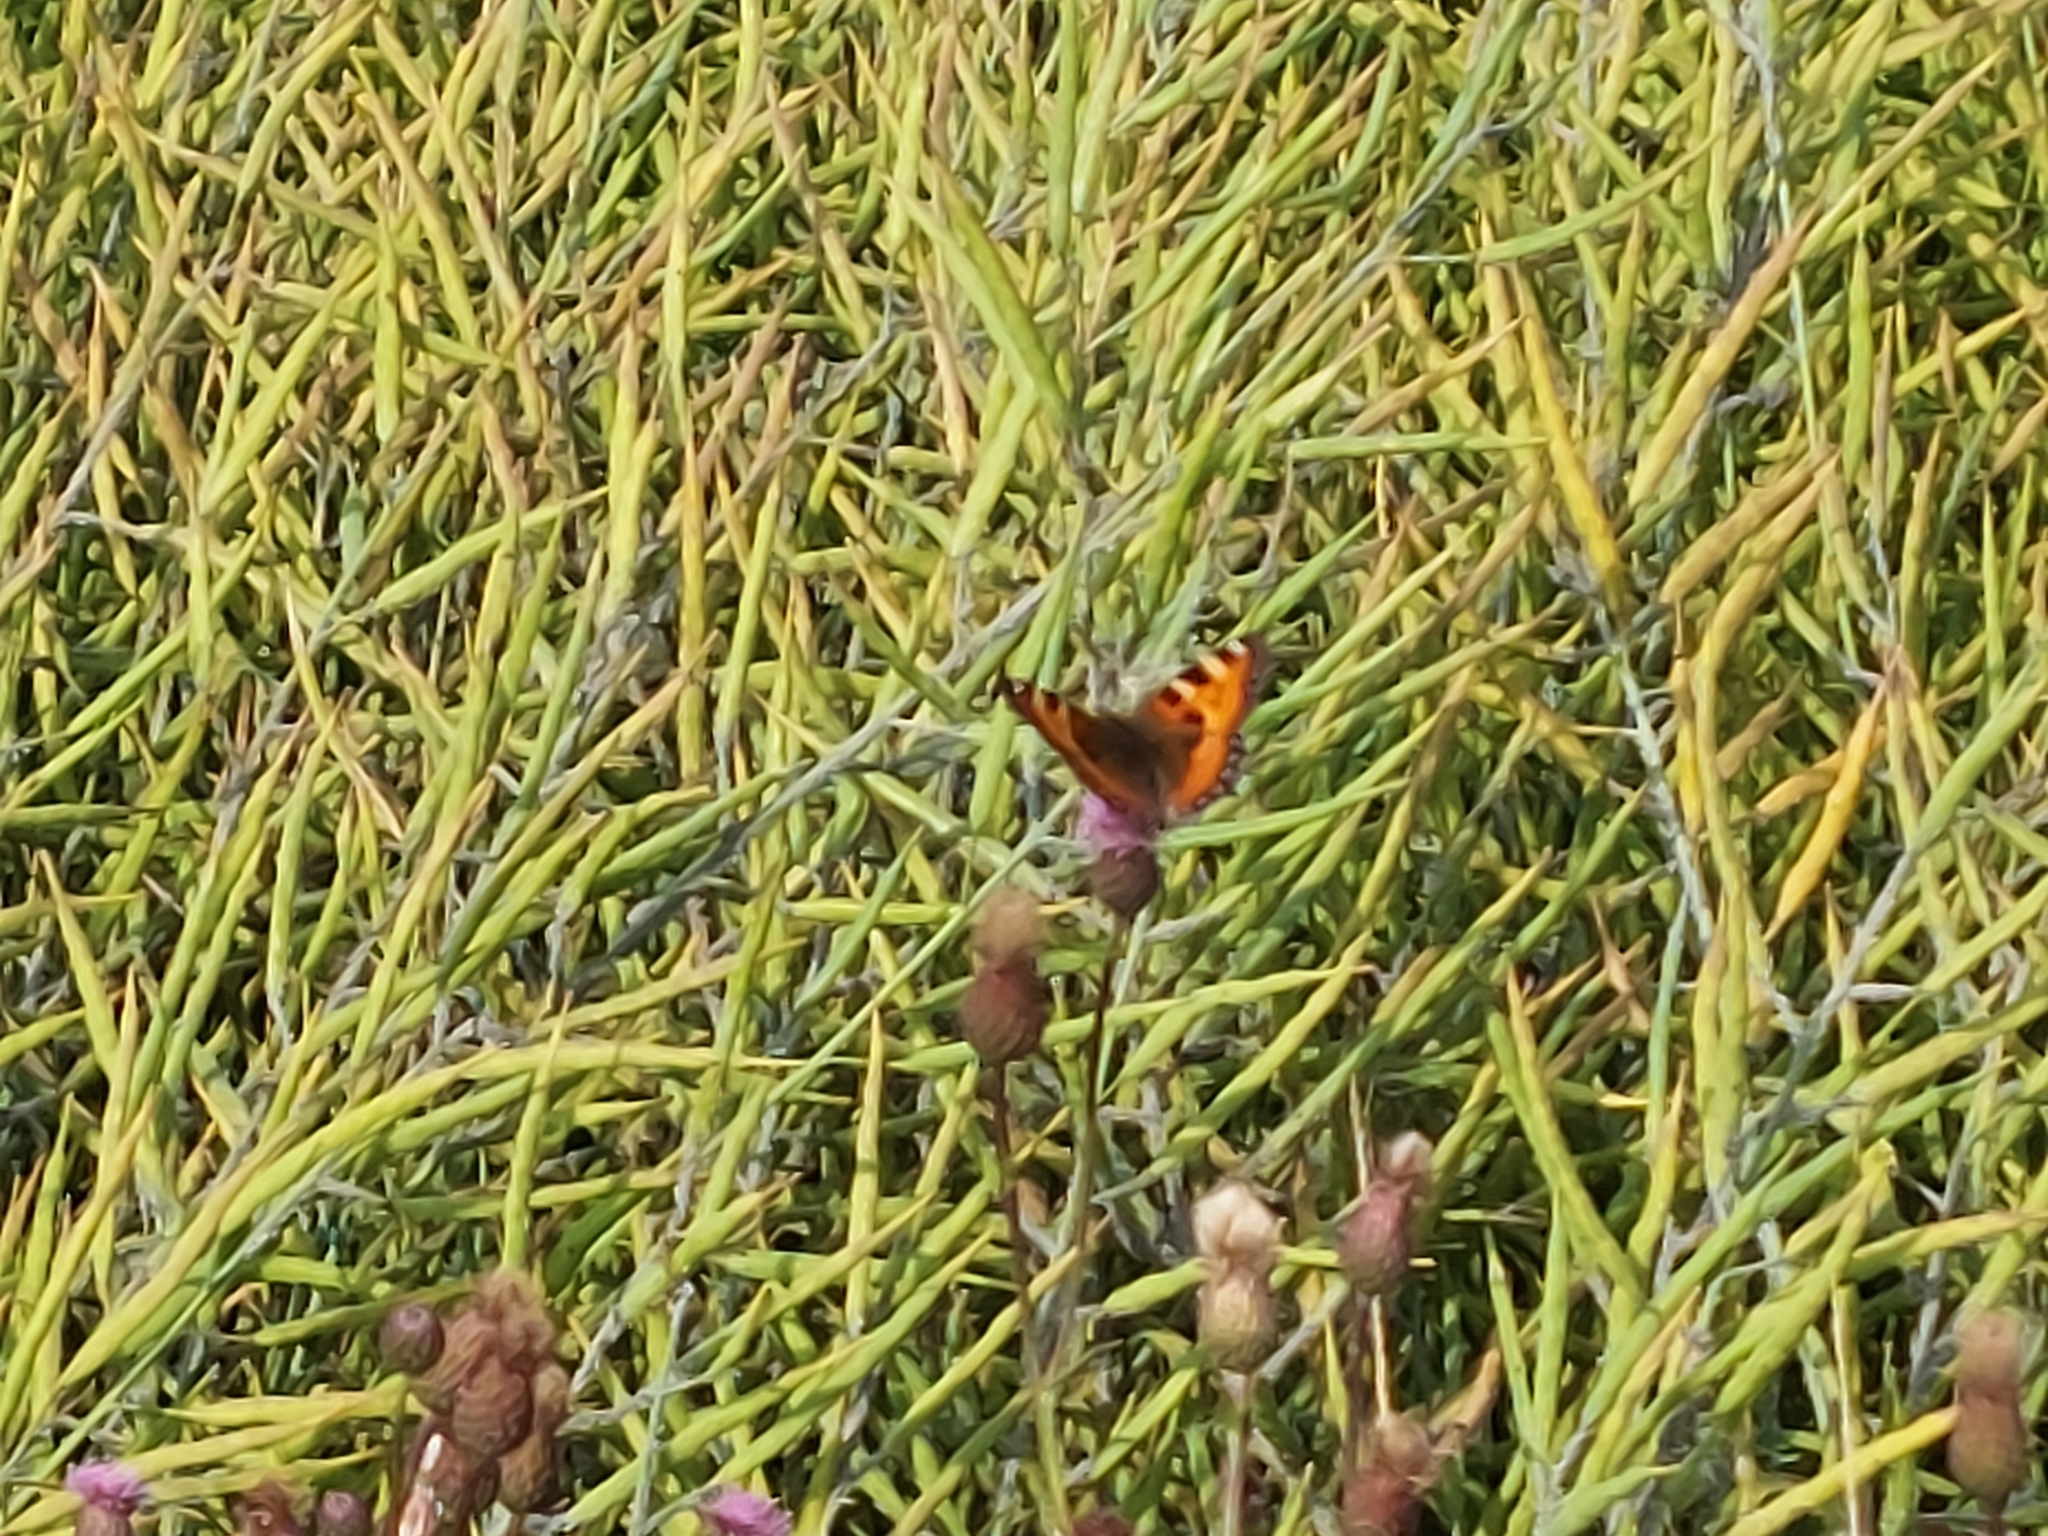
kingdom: Animalia
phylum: Arthropoda
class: Insecta
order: Lepidoptera
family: Nymphalidae
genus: Aglais
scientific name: Aglais urticae
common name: Small tortoiseshell
